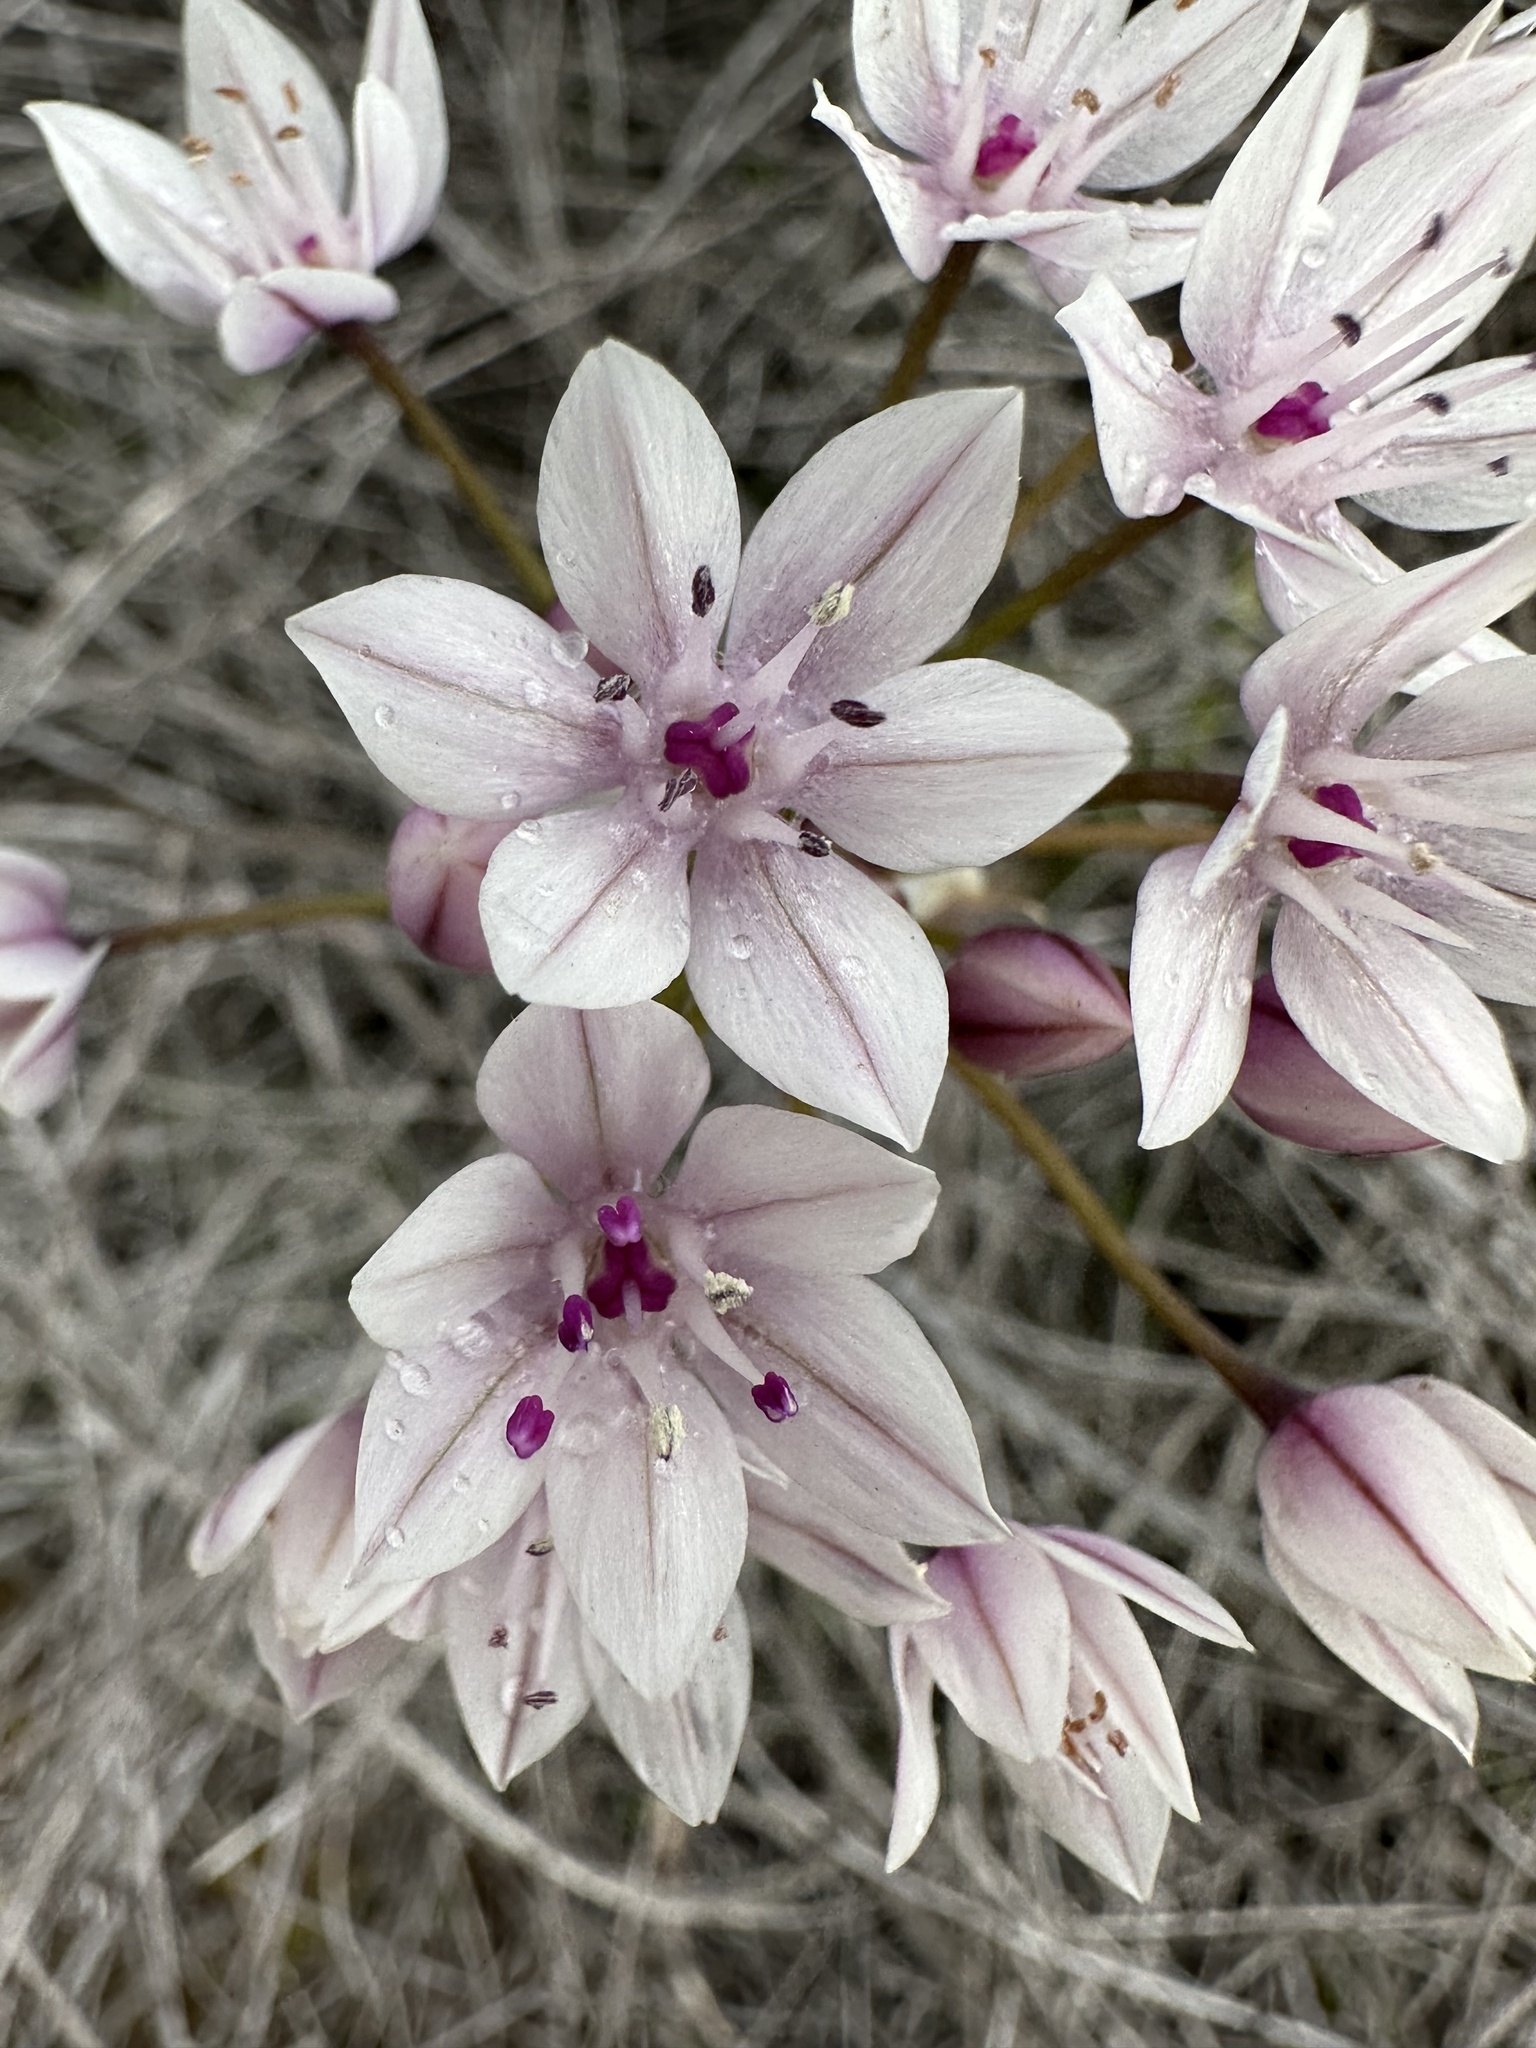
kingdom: Plantae
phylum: Tracheophyta
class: Liliopsida
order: Asparagales
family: Amaryllidaceae
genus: Allium
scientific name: Allium praecox
